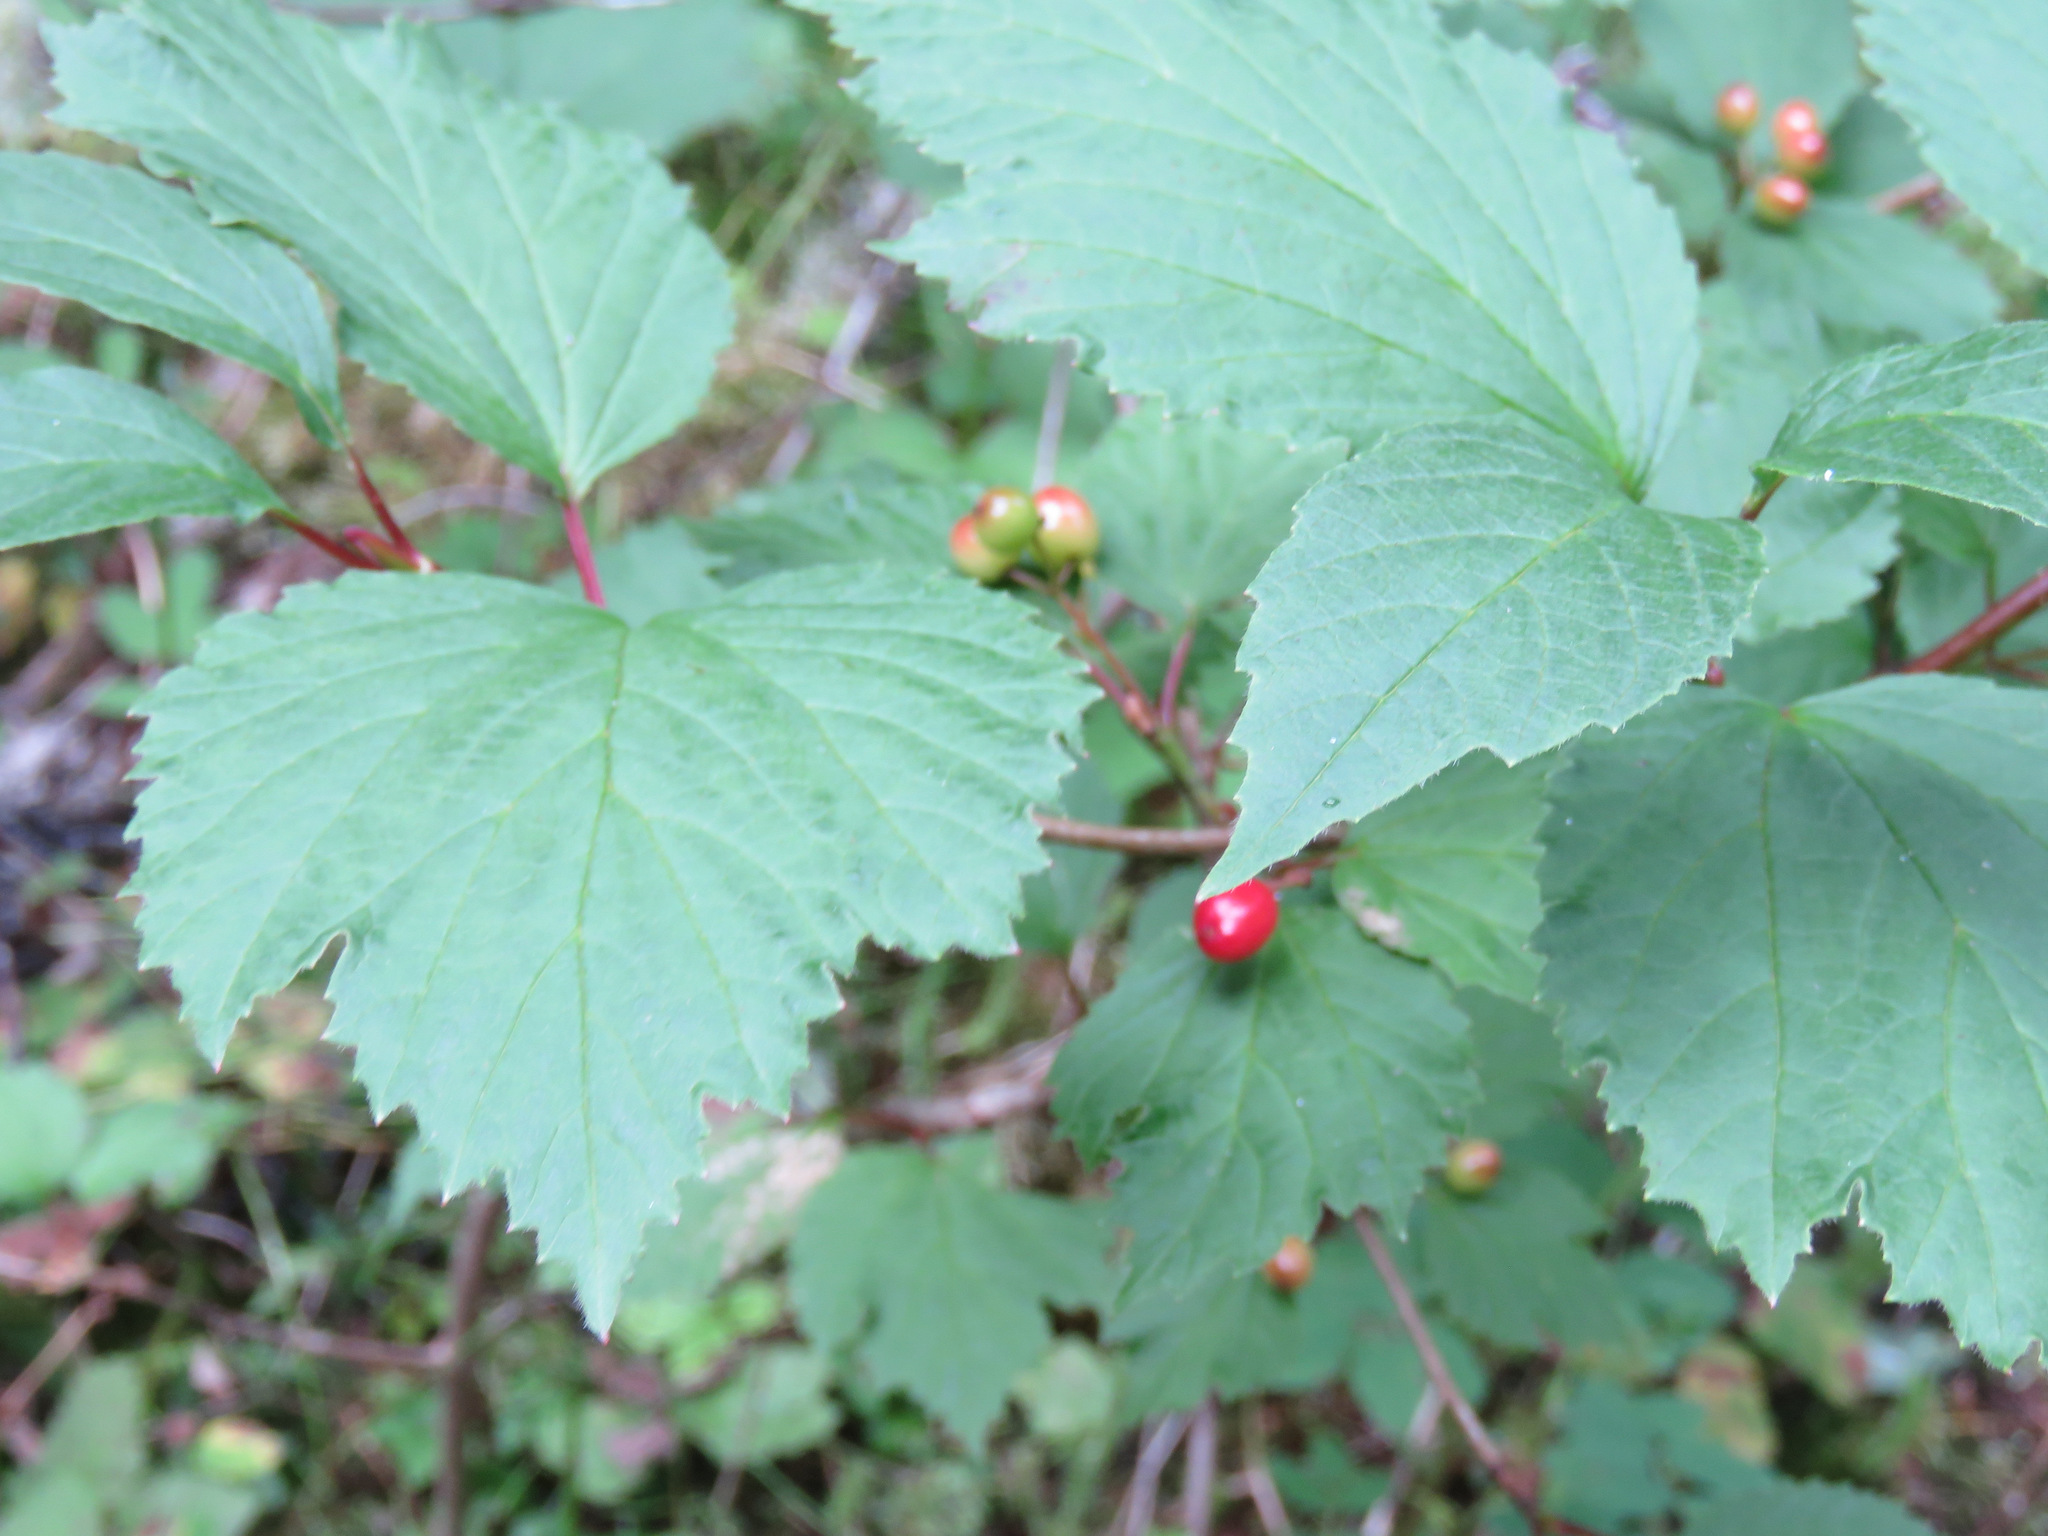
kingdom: Plantae
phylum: Tracheophyta
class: Magnoliopsida
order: Dipsacales
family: Viburnaceae
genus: Viburnum
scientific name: Viburnum edule
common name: Mooseberry
